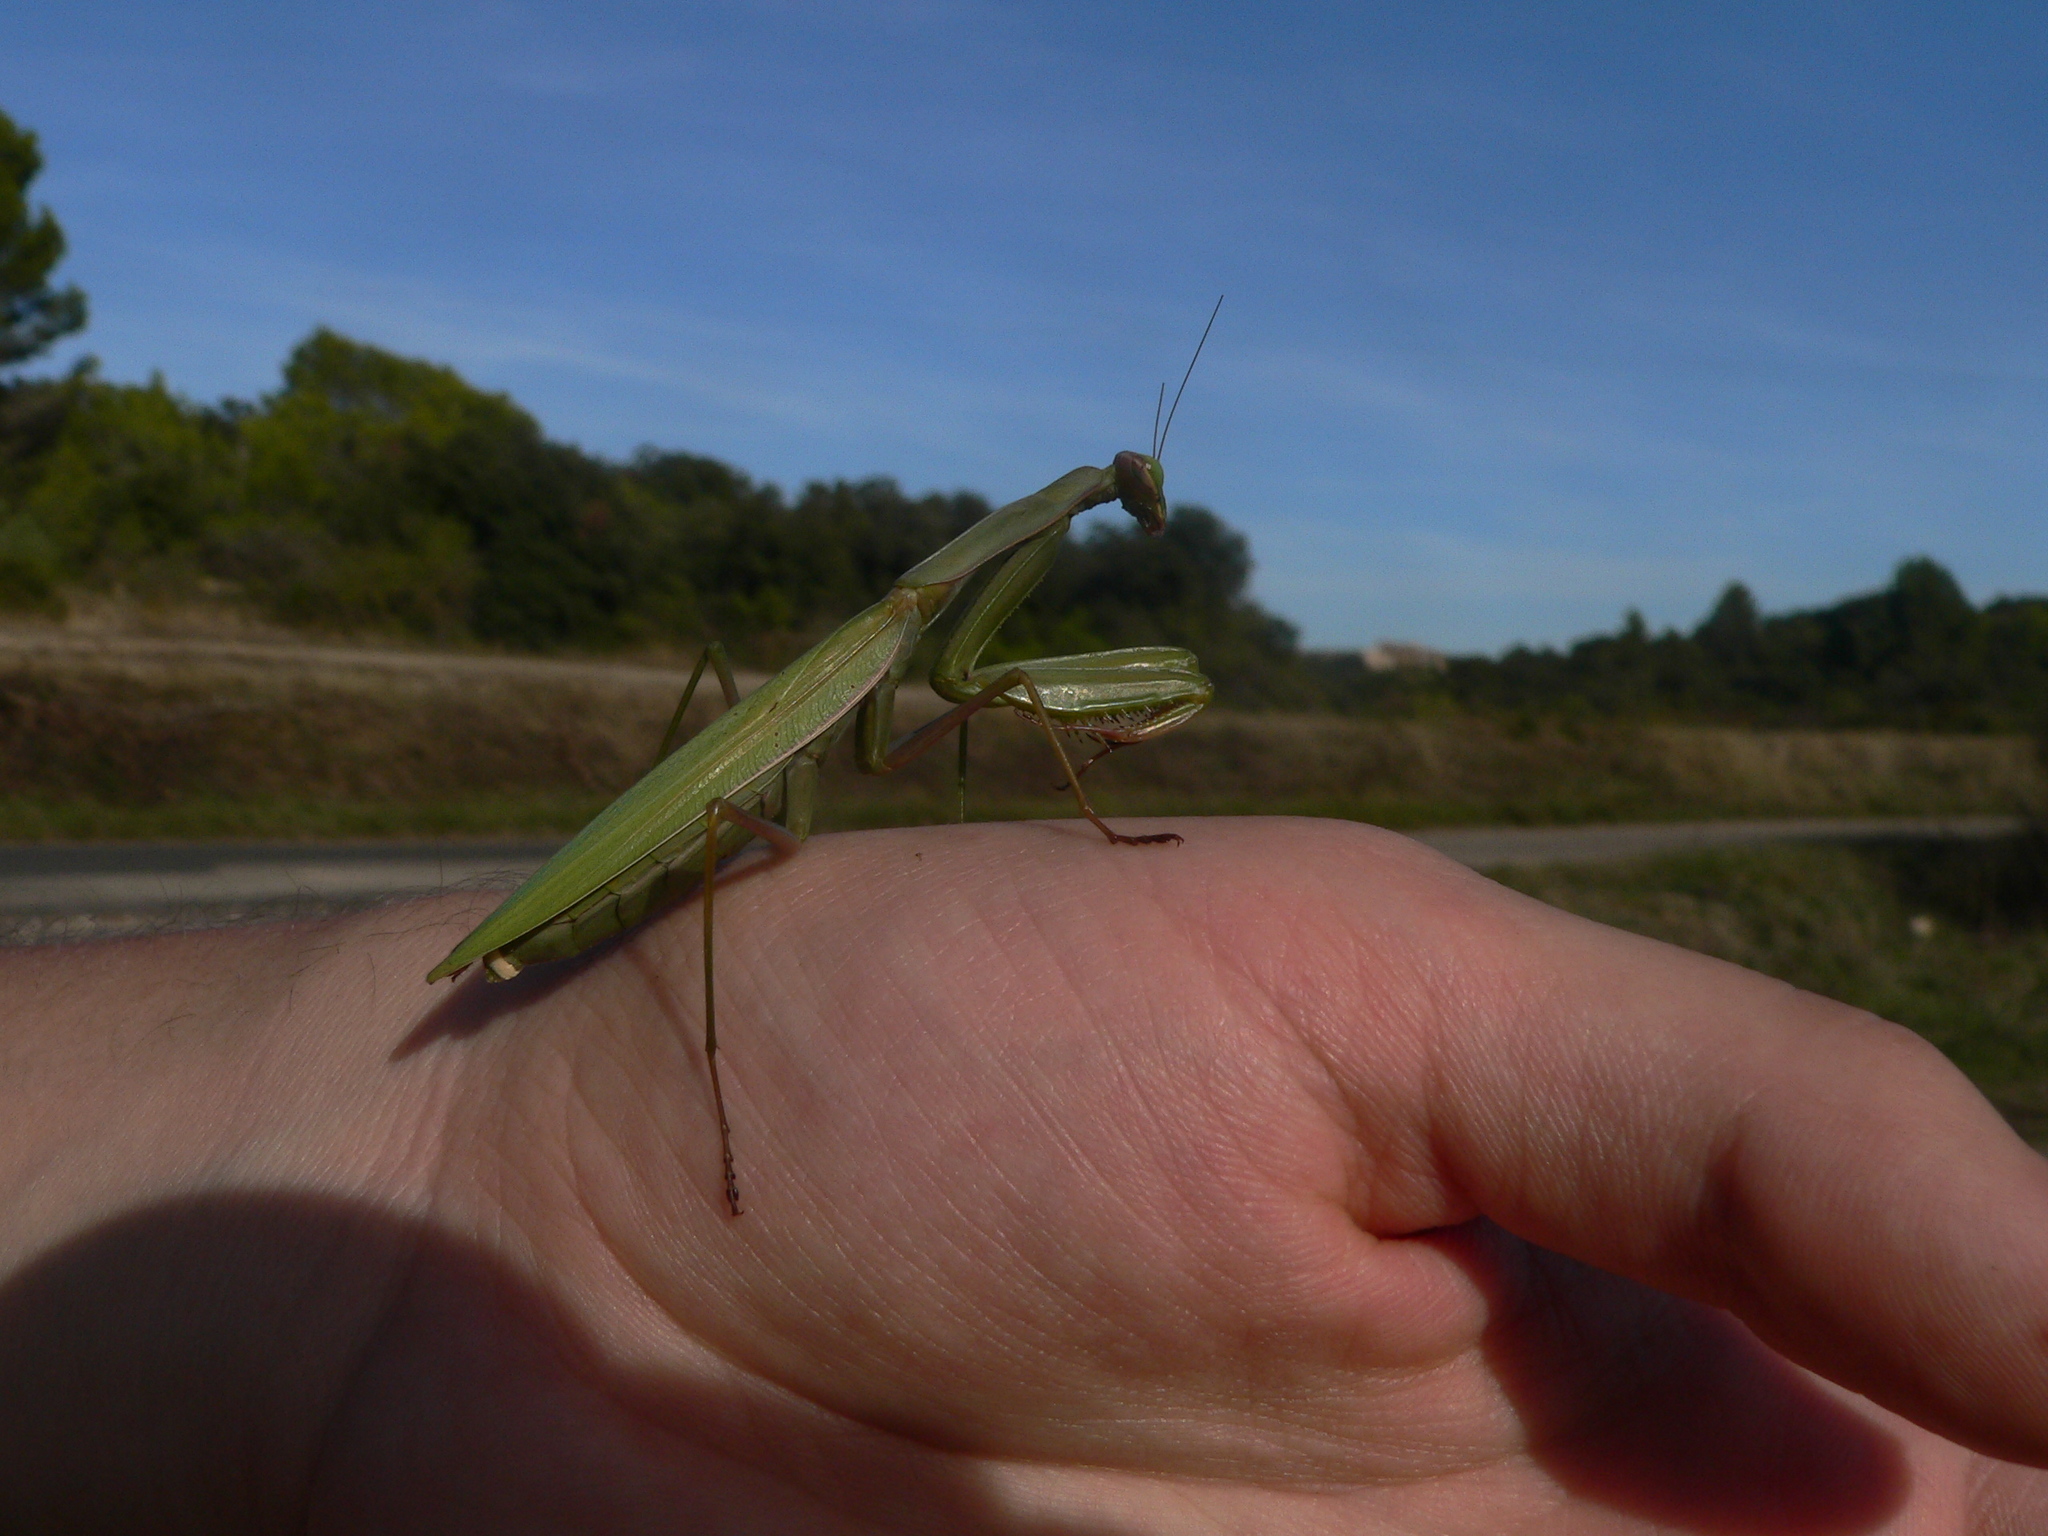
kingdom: Animalia
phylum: Arthropoda
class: Insecta
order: Mantodea
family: Mantidae
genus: Mantis
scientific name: Mantis religiosa
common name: Praying mantis
